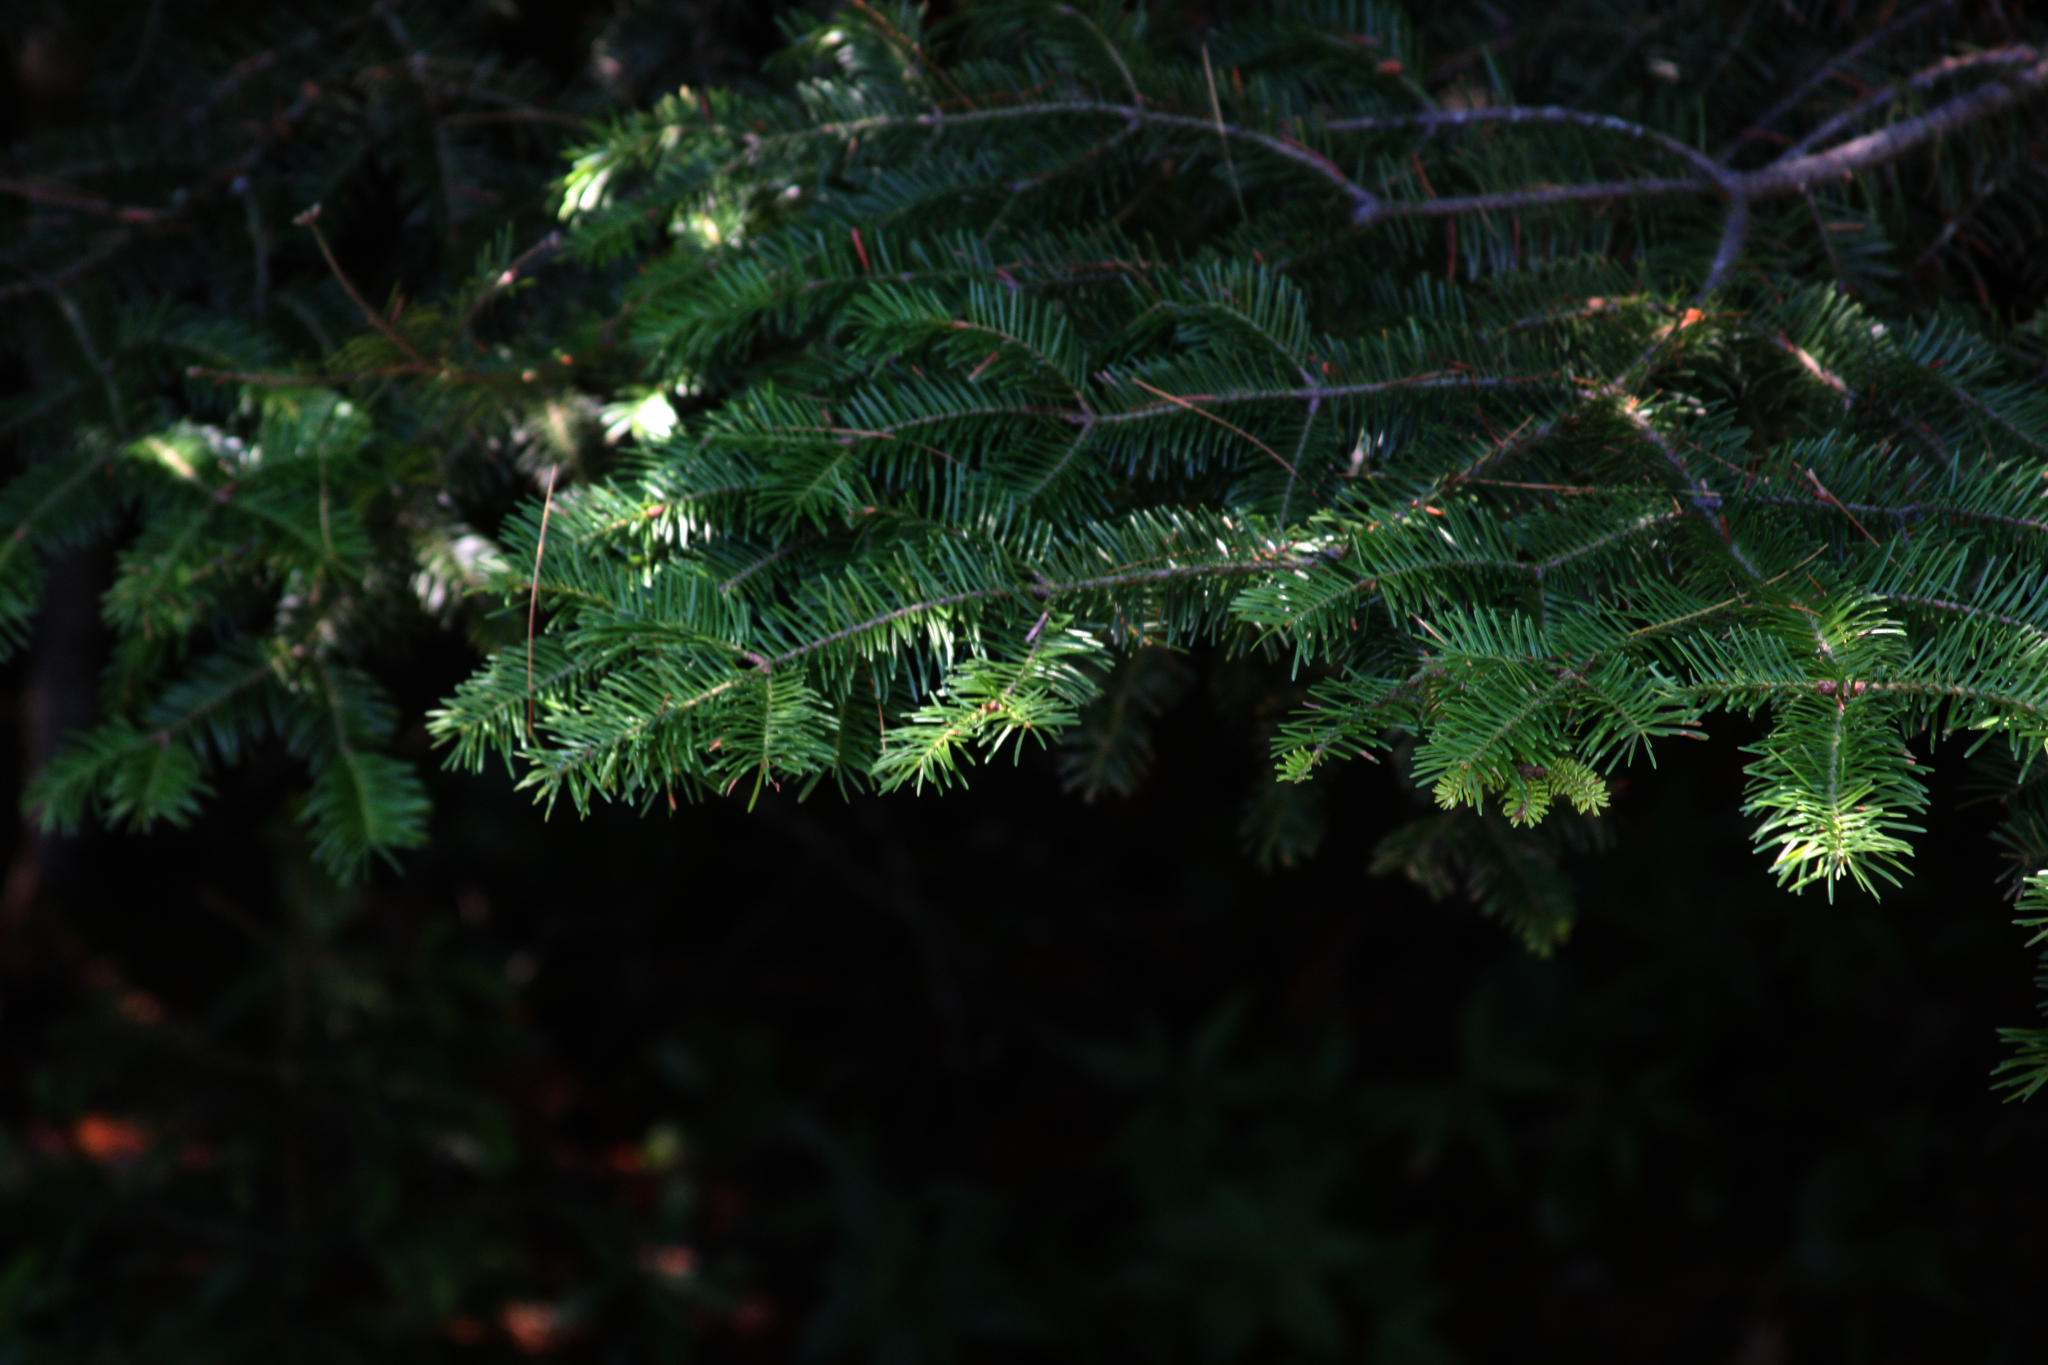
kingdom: Plantae
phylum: Tracheophyta
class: Pinopsida
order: Pinales
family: Pinaceae
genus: Abies
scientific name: Abies balsamea
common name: Balsam fir
